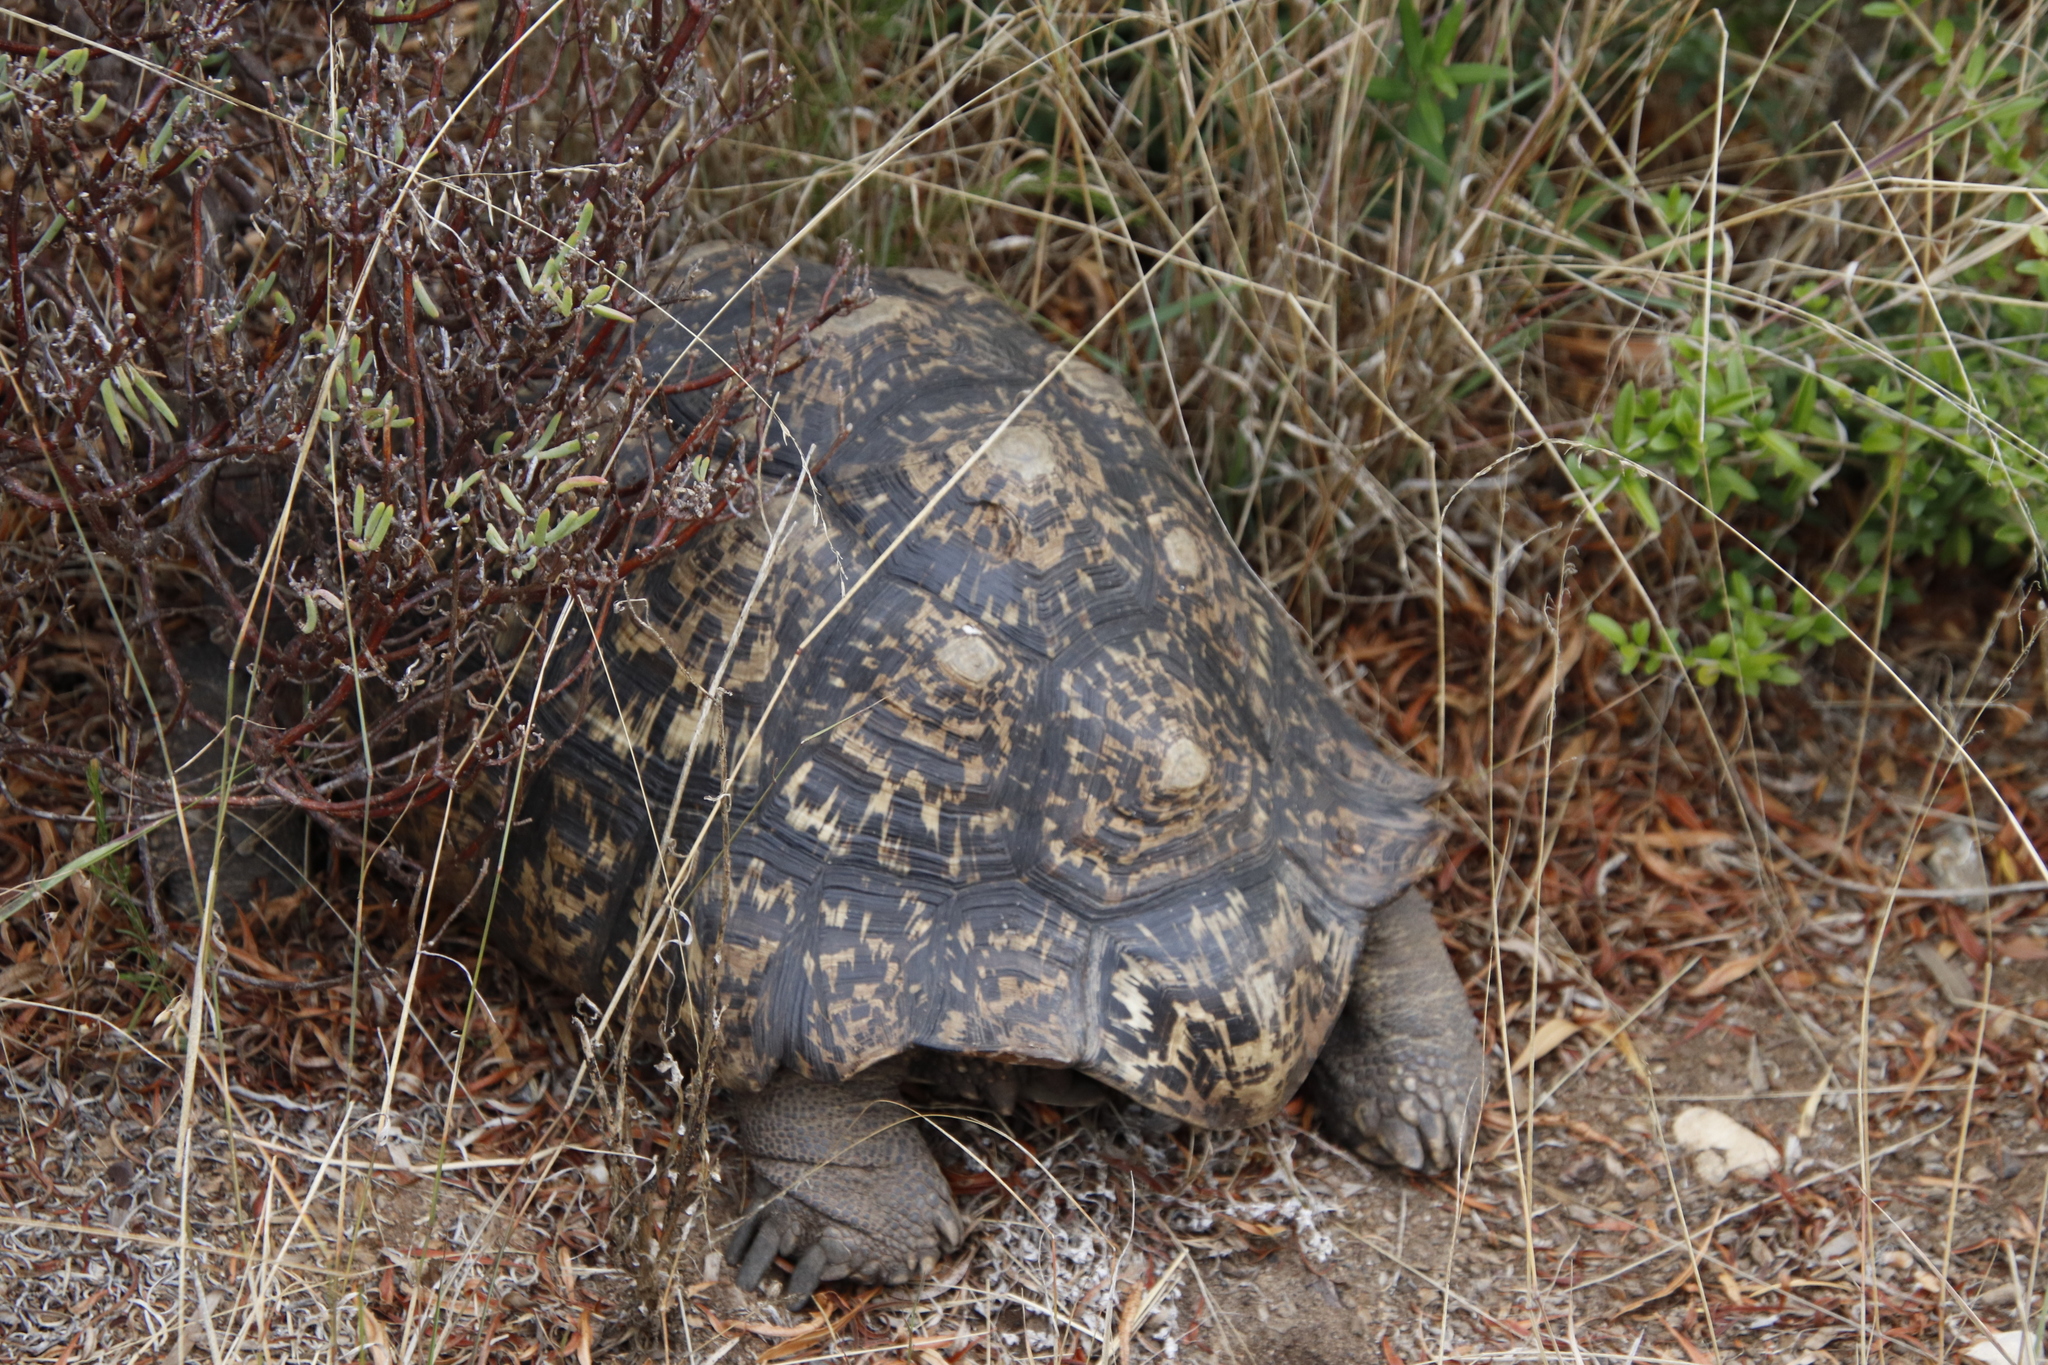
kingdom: Animalia
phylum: Chordata
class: Testudines
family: Testudinidae
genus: Stigmochelys
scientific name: Stigmochelys pardalis
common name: Leopard tortoise
